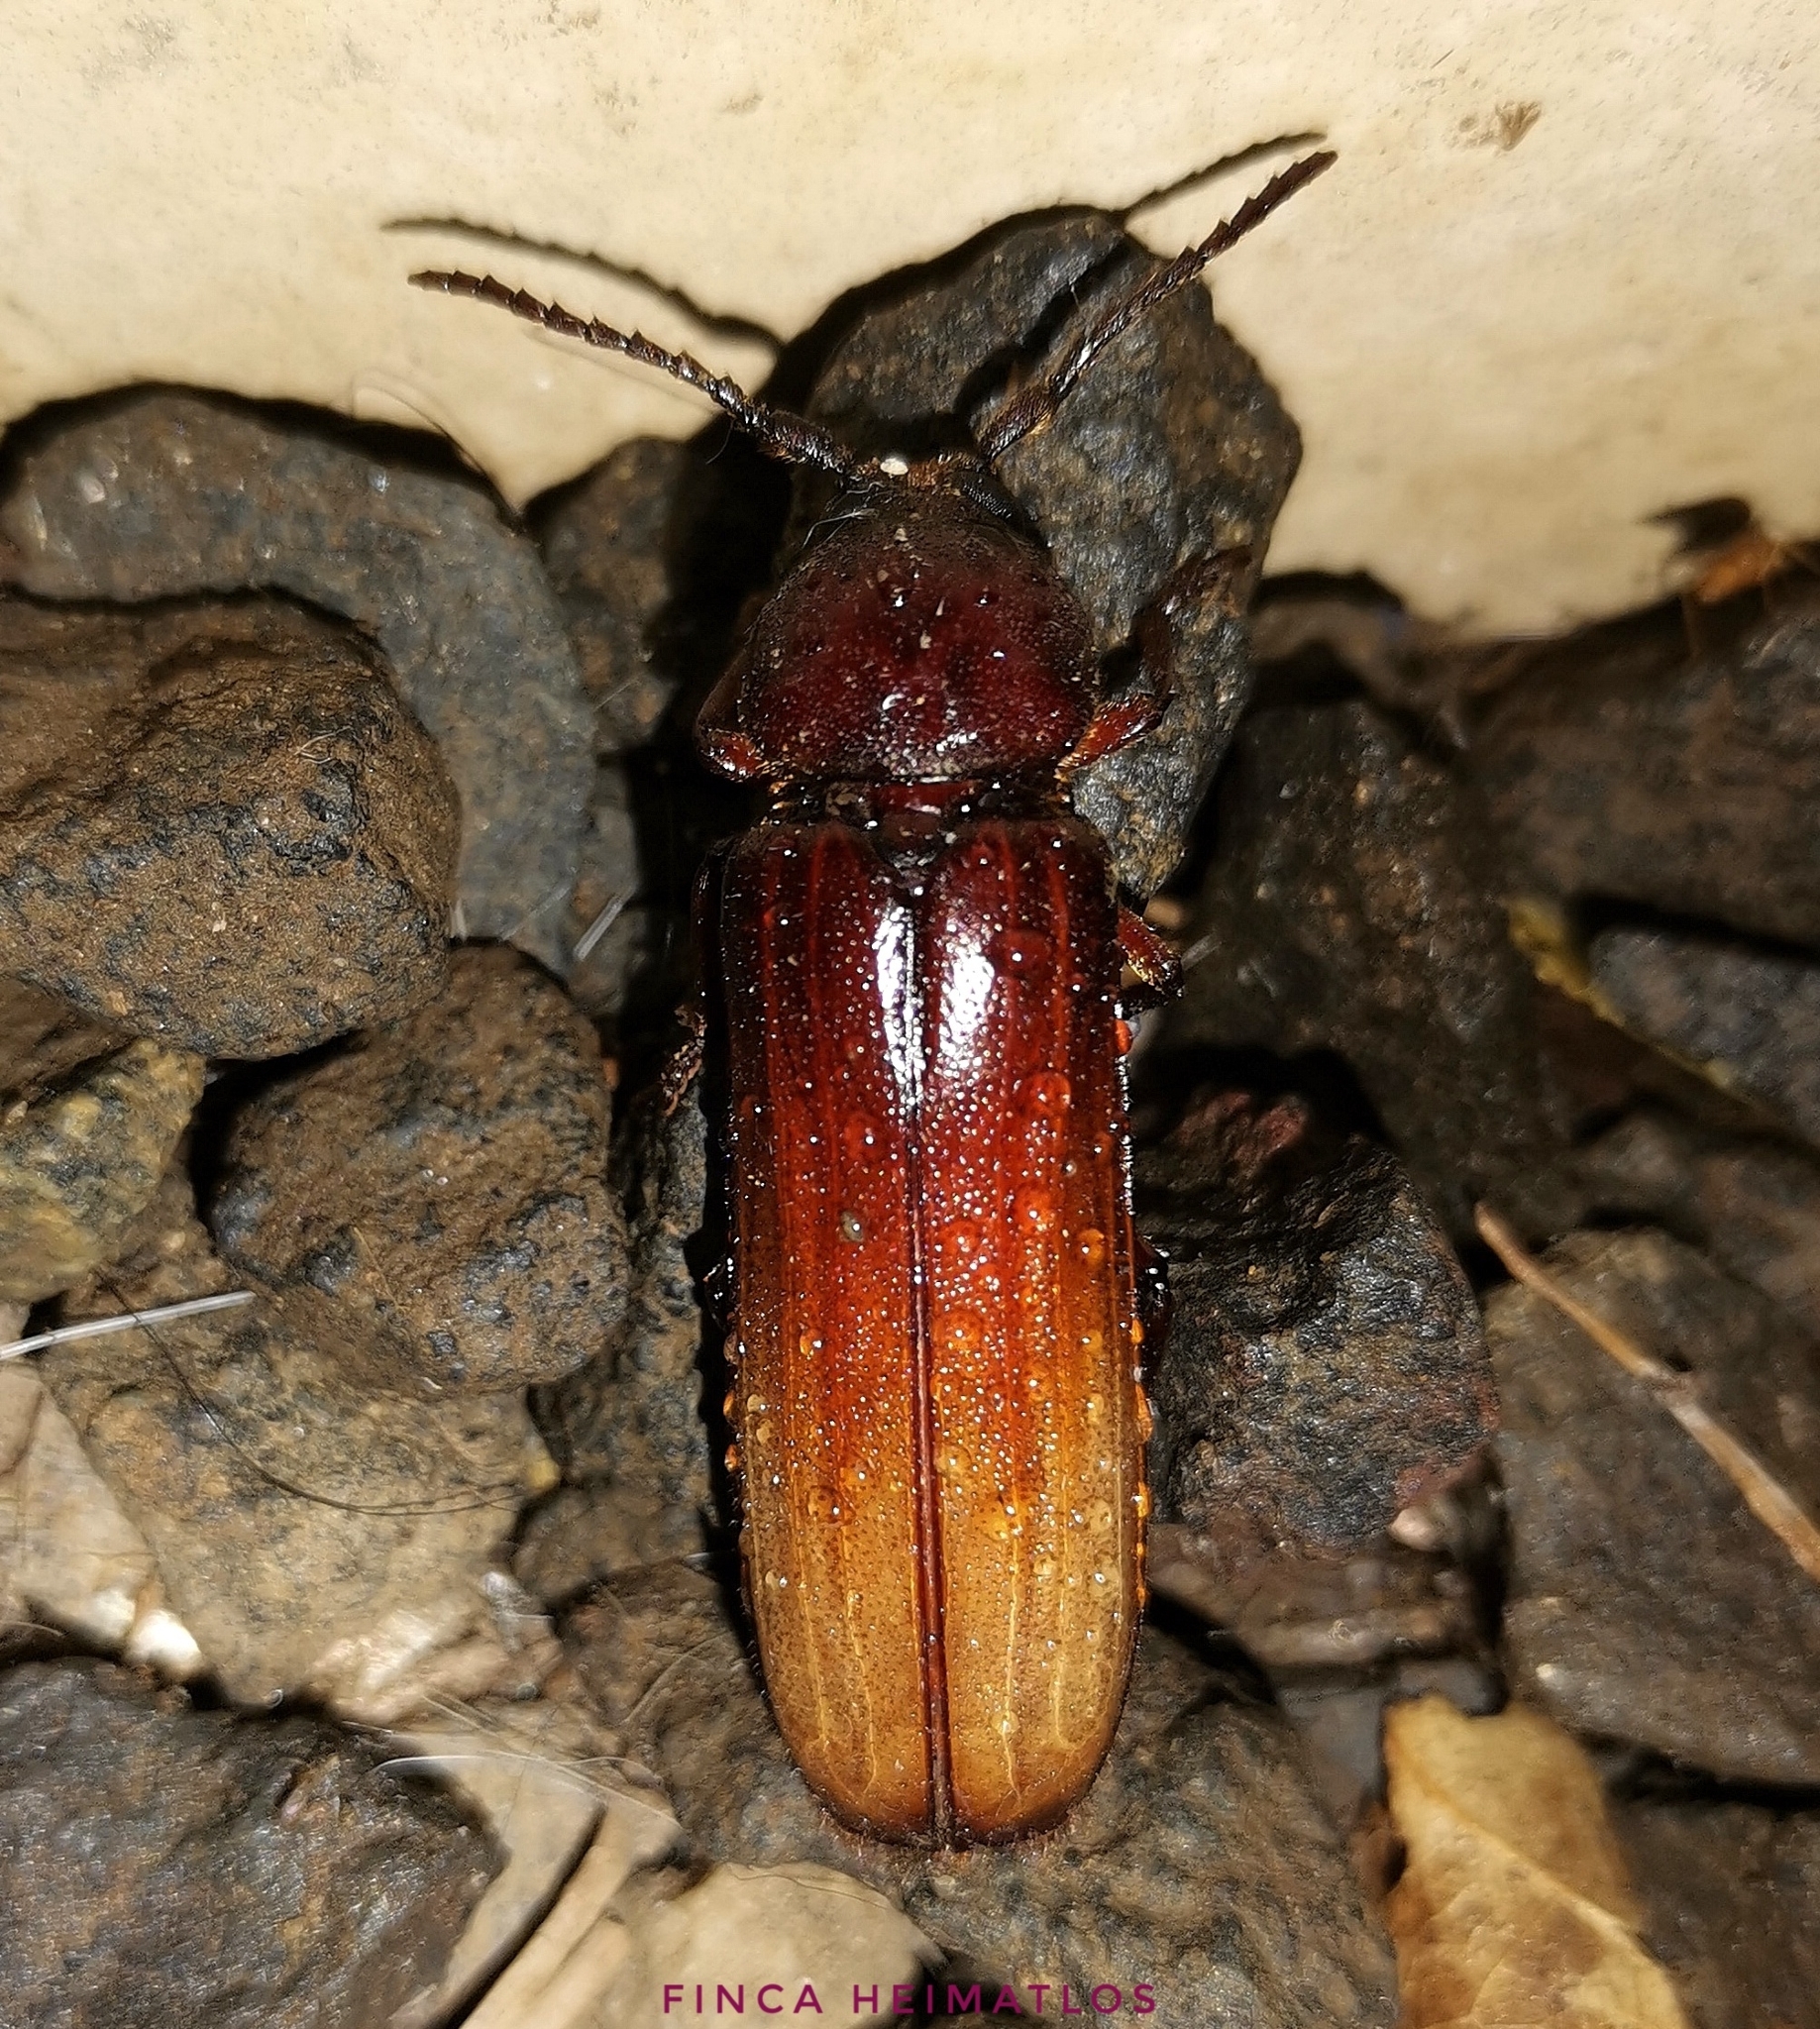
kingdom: Animalia
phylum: Arthropoda
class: Insecta
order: Coleoptera
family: Cerambycidae
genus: Xenambyx
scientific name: Xenambyx lansbergei
